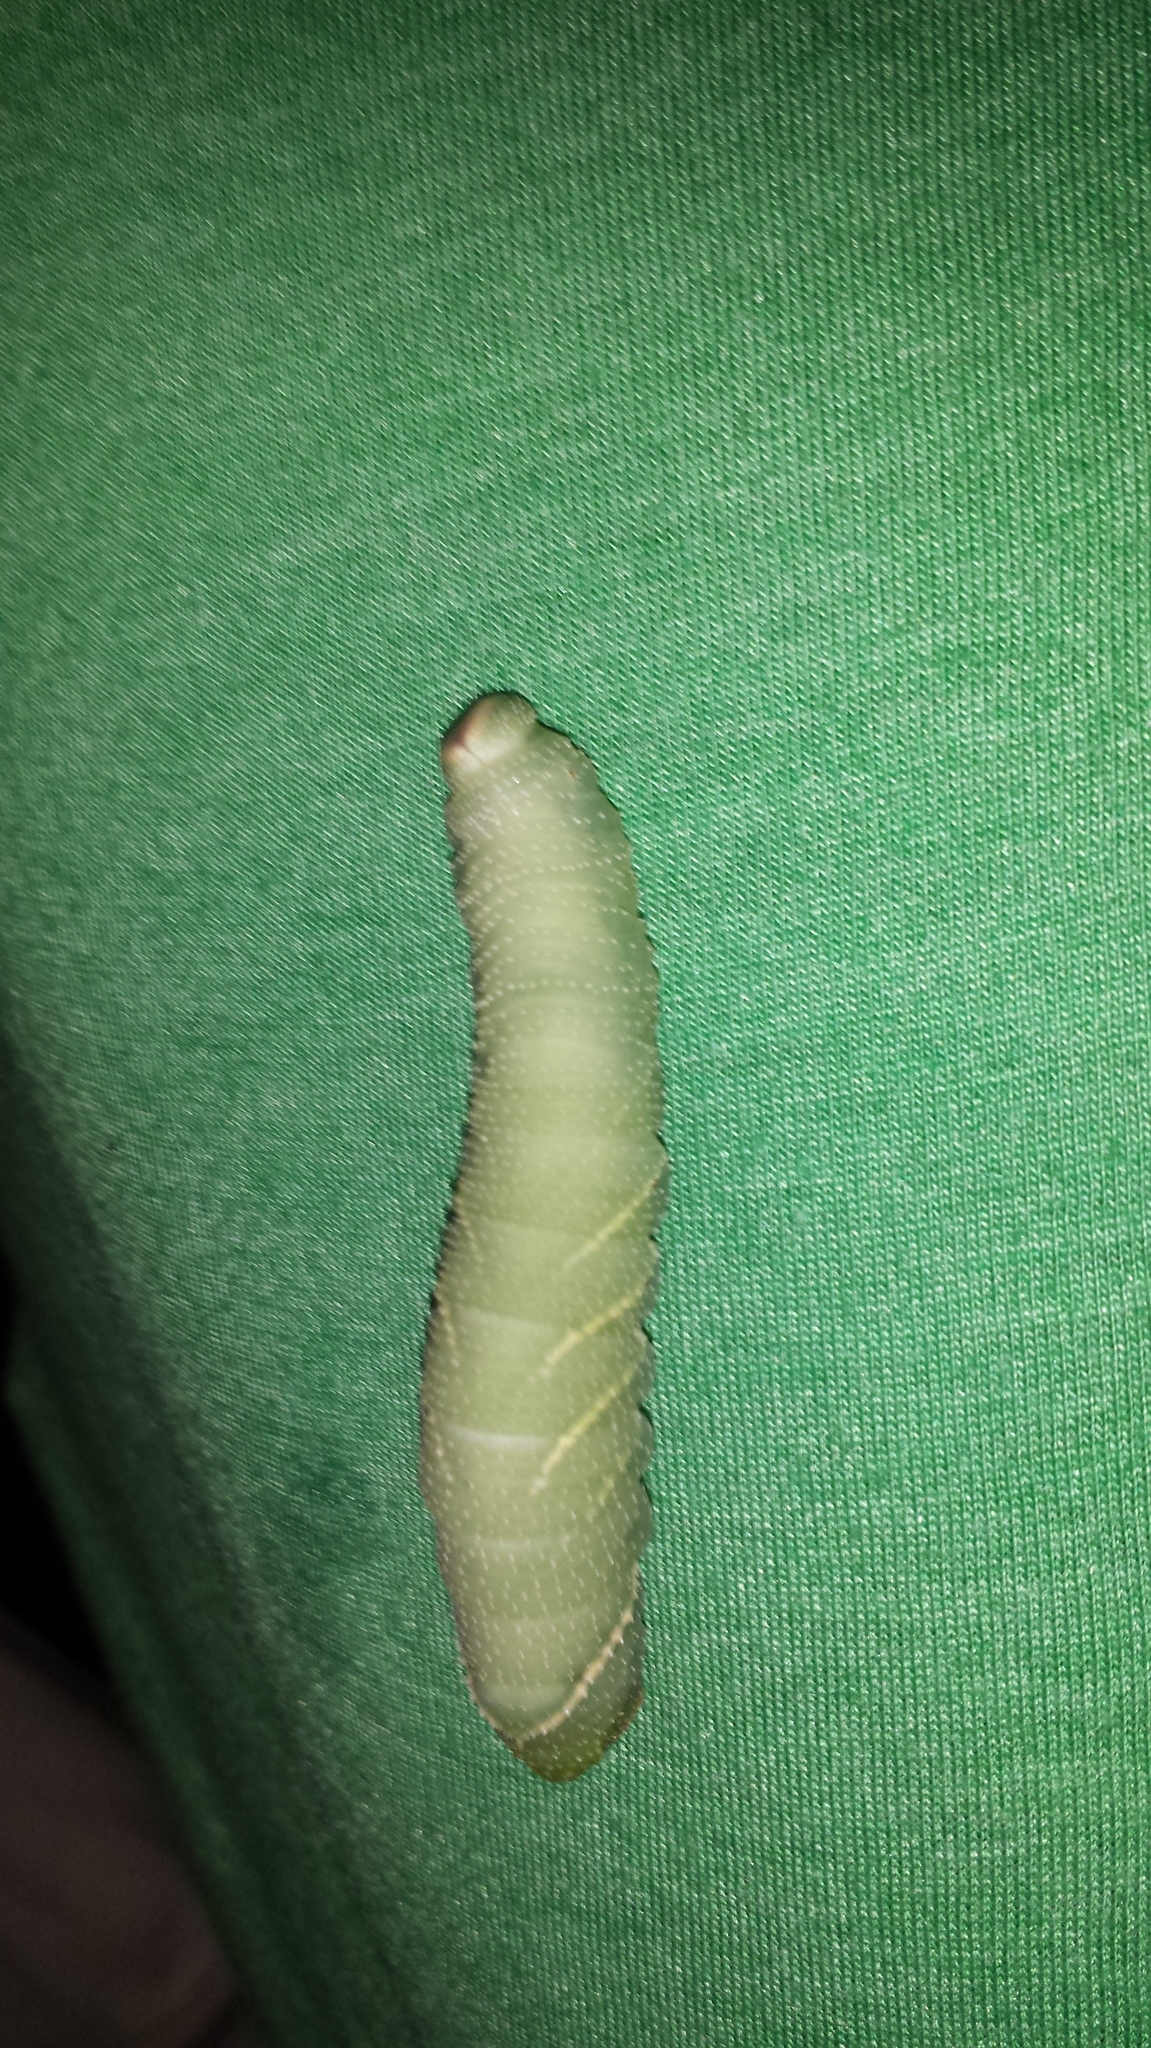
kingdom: Animalia
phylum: Arthropoda
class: Insecta
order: Lepidoptera
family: Sphingidae
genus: Pachysphinx
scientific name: Pachysphinx modesta
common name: Big poplar sphinx
